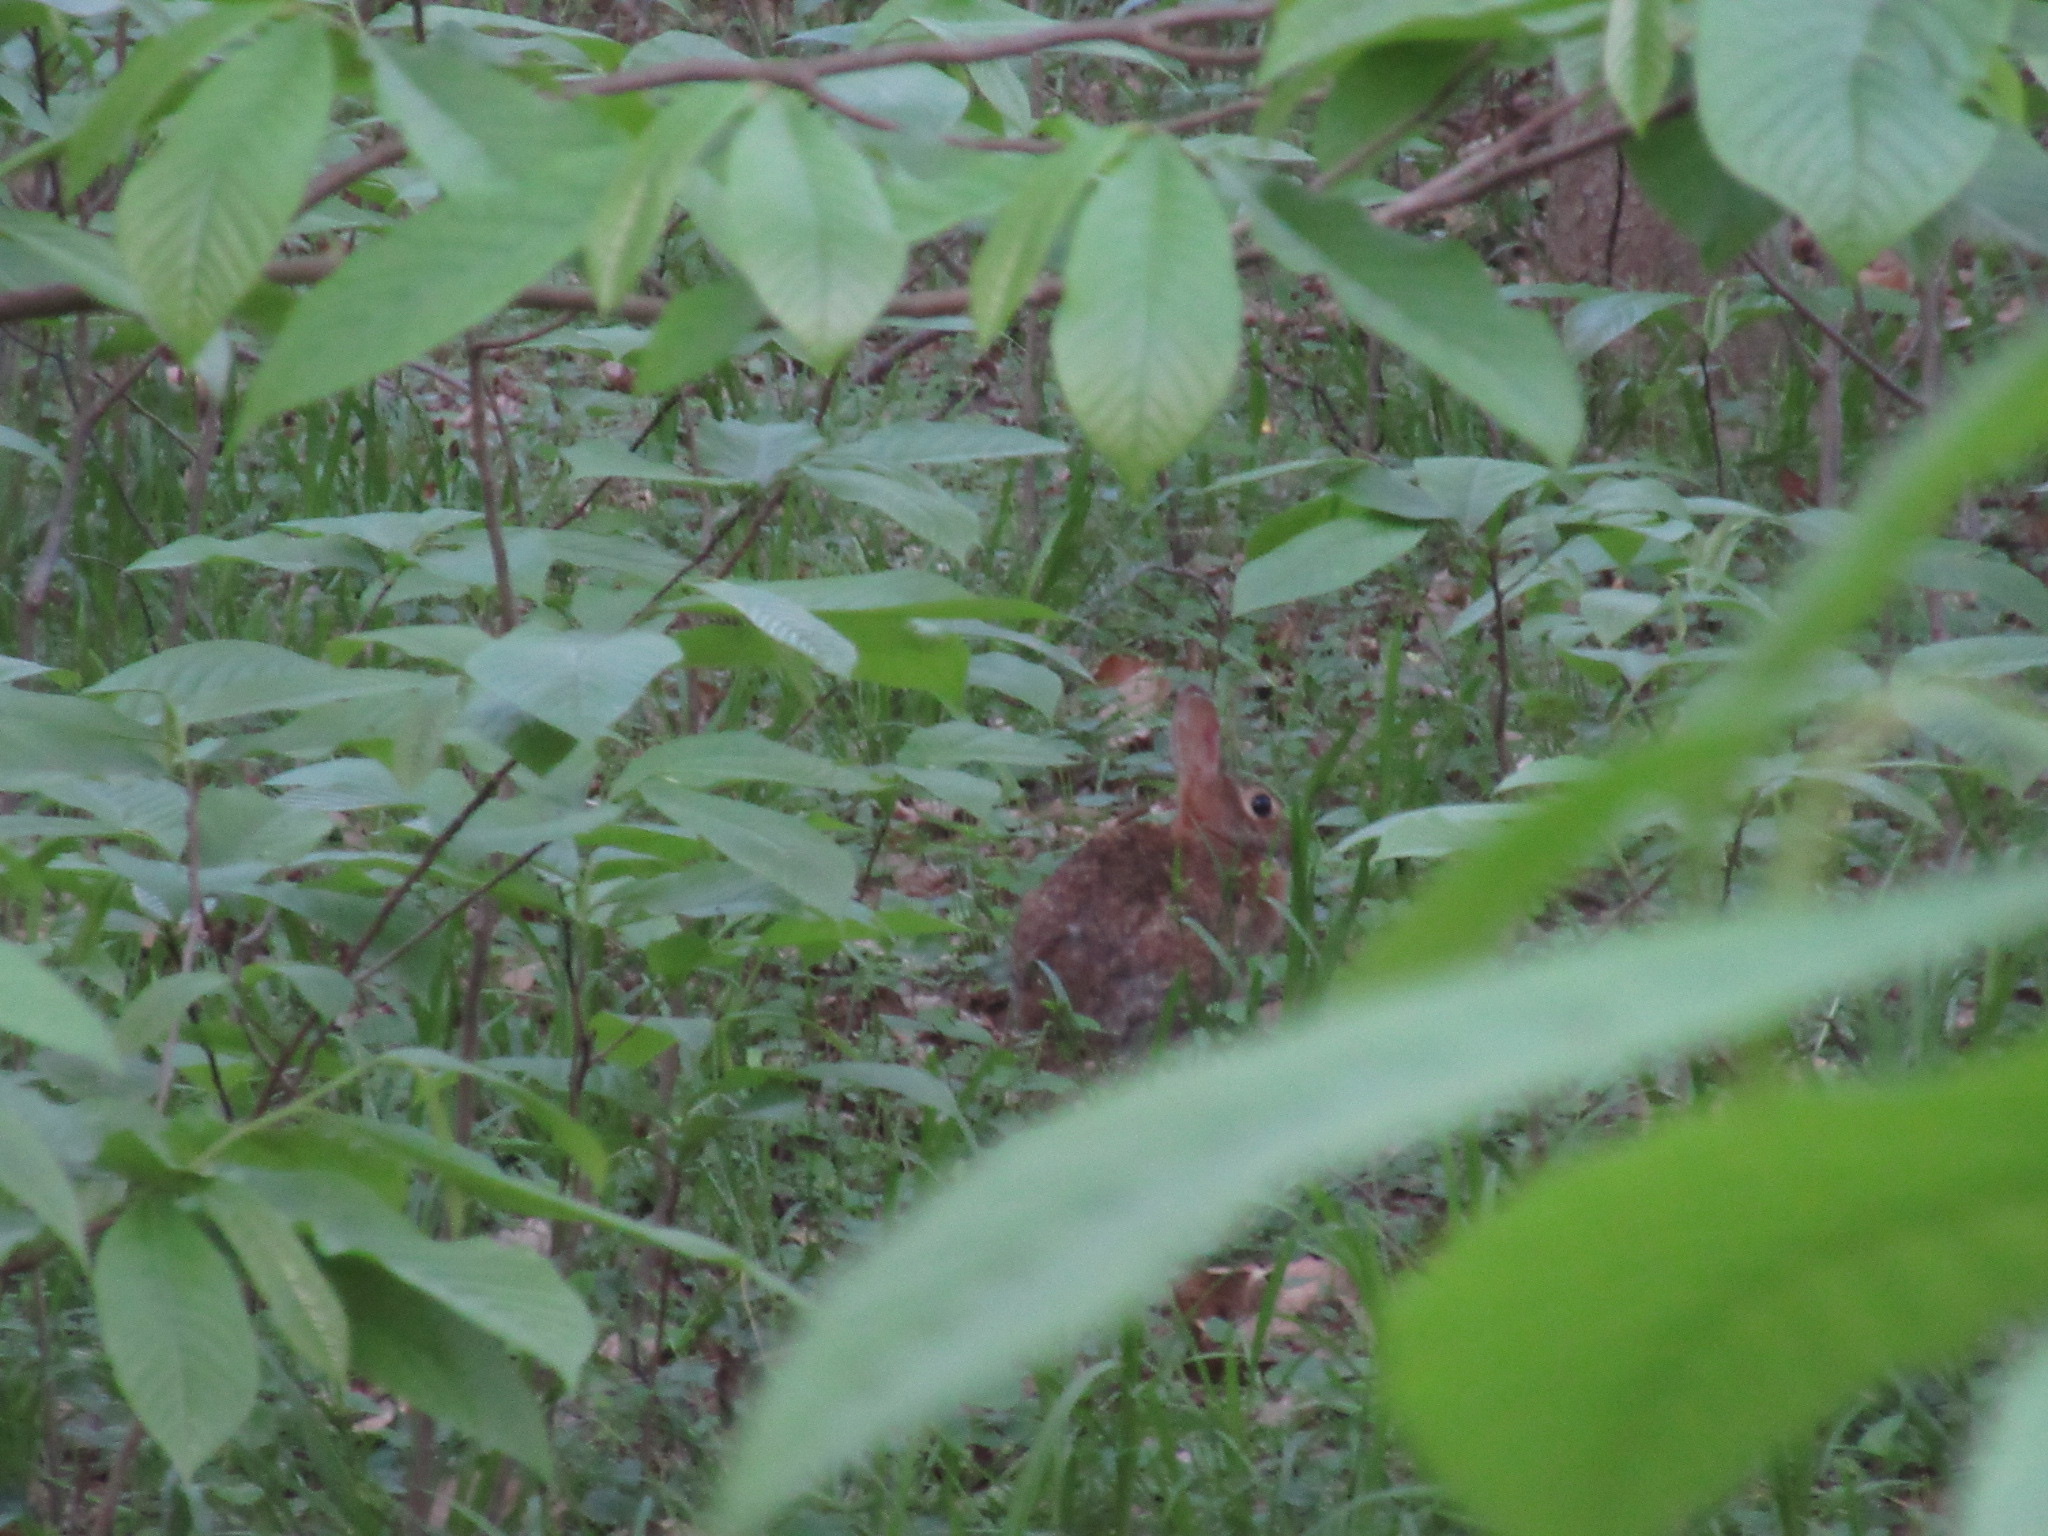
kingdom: Animalia
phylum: Chordata
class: Mammalia
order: Lagomorpha
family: Leporidae
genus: Sylvilagus
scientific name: Sylvilagus floridanus
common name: Eastern cottontail
